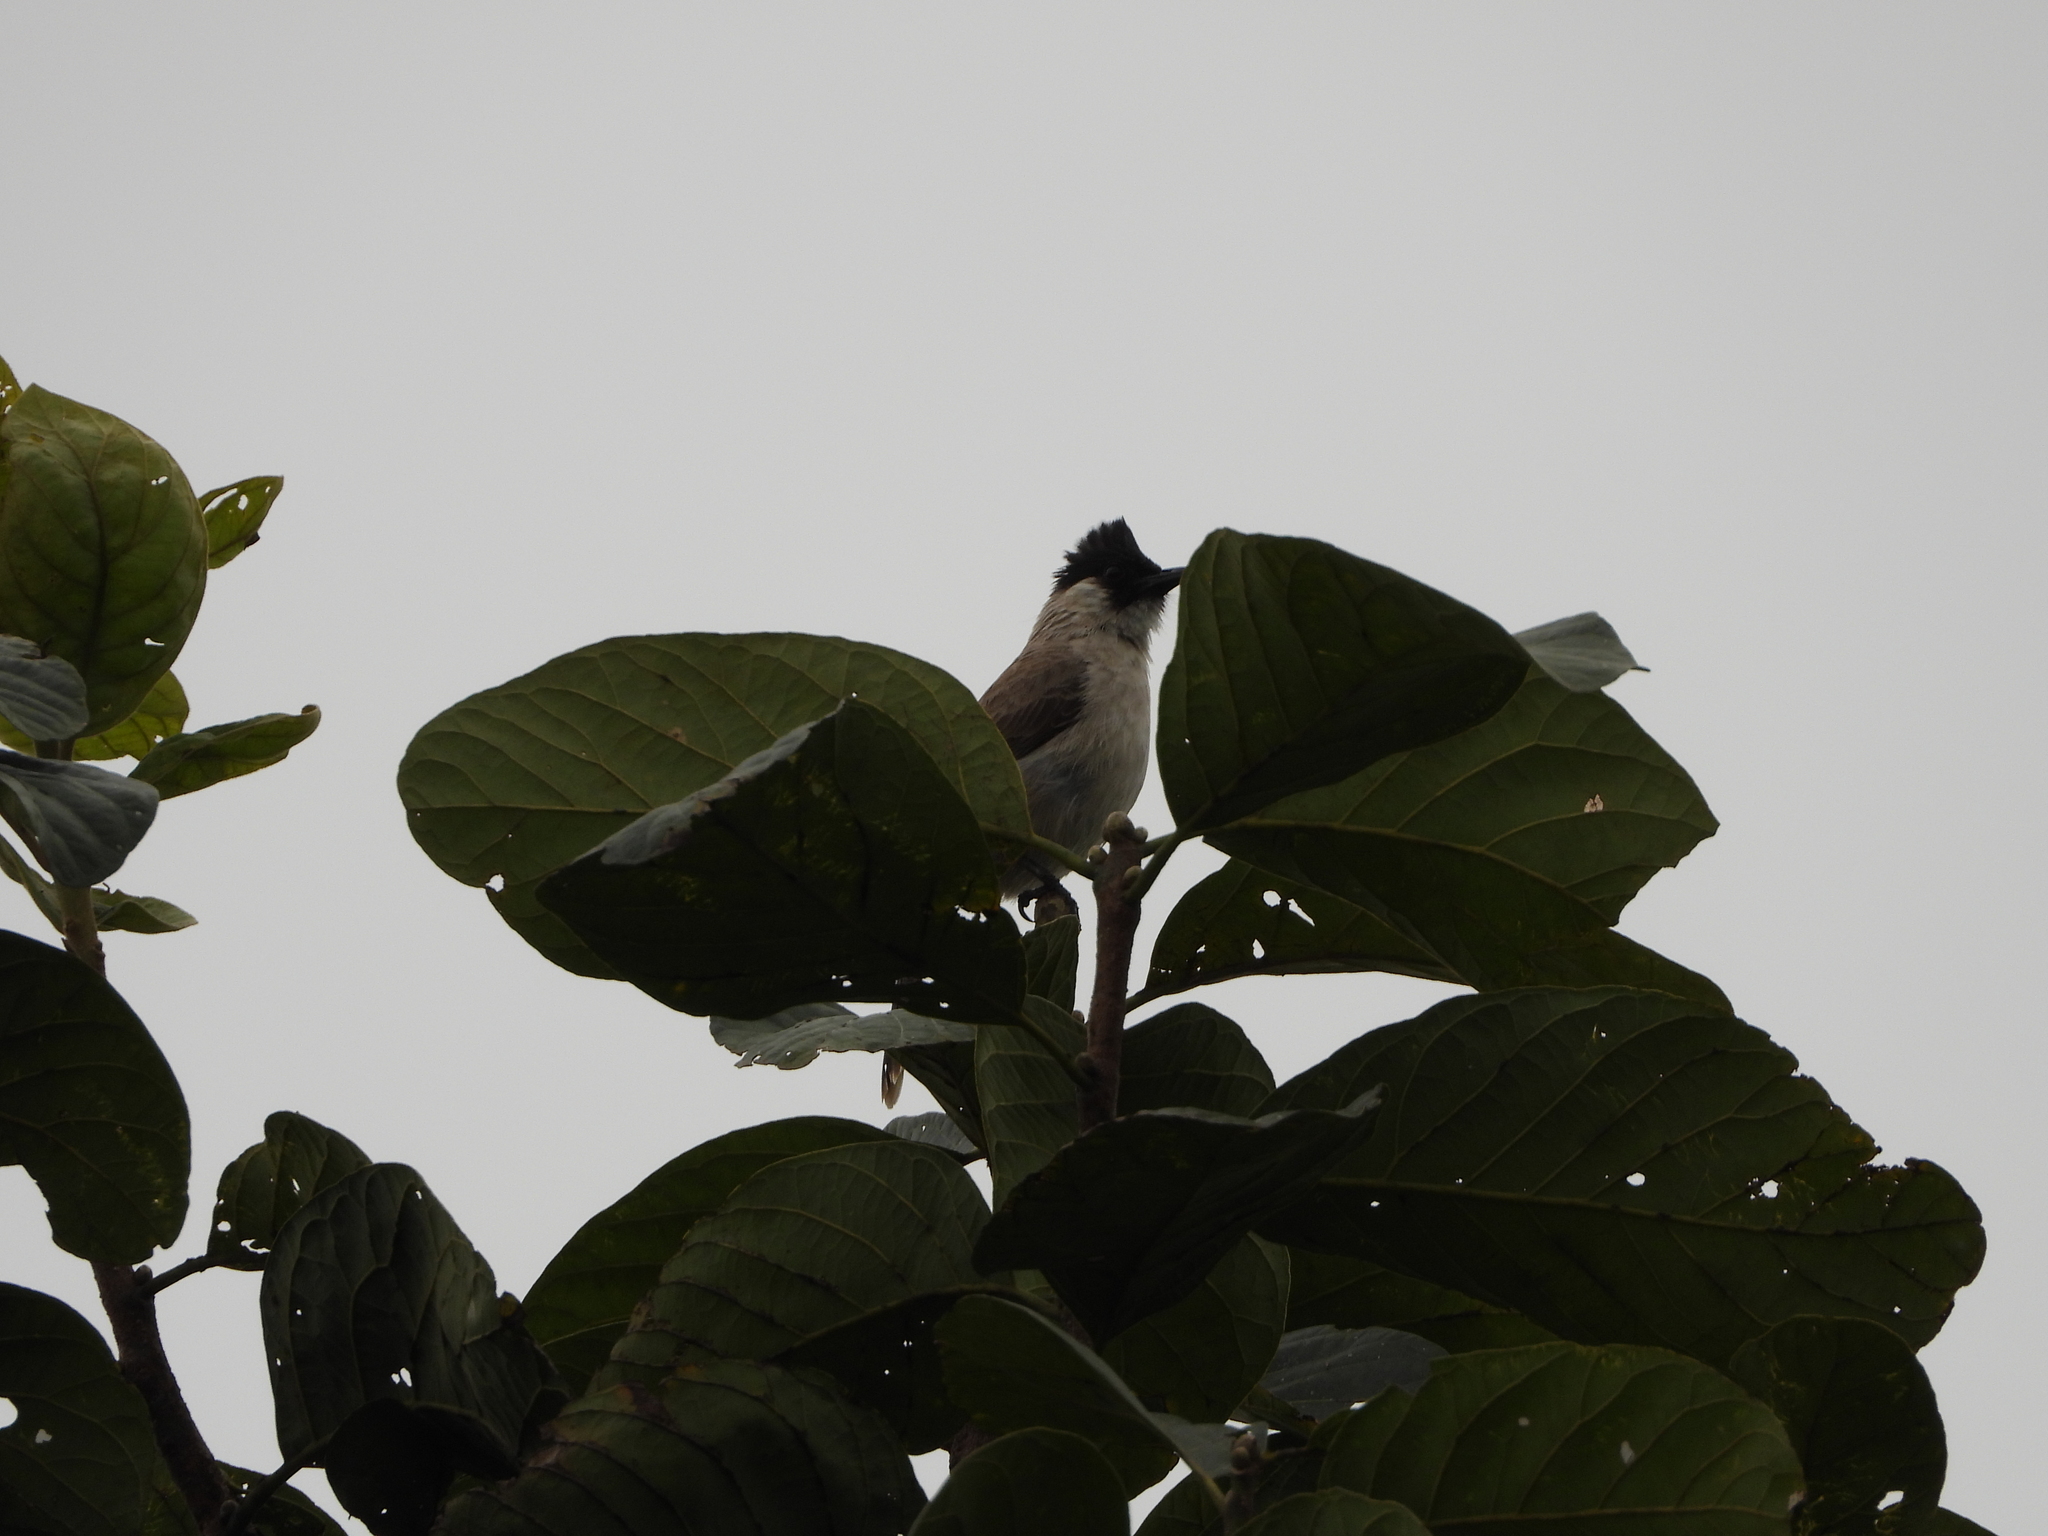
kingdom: Animalia
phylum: Chordata
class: Aves
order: Passeriformes
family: Pycnonotidae
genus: Pycnonotus
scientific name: Pycnonotus aurigaster
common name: Sooty-headed bulbul
